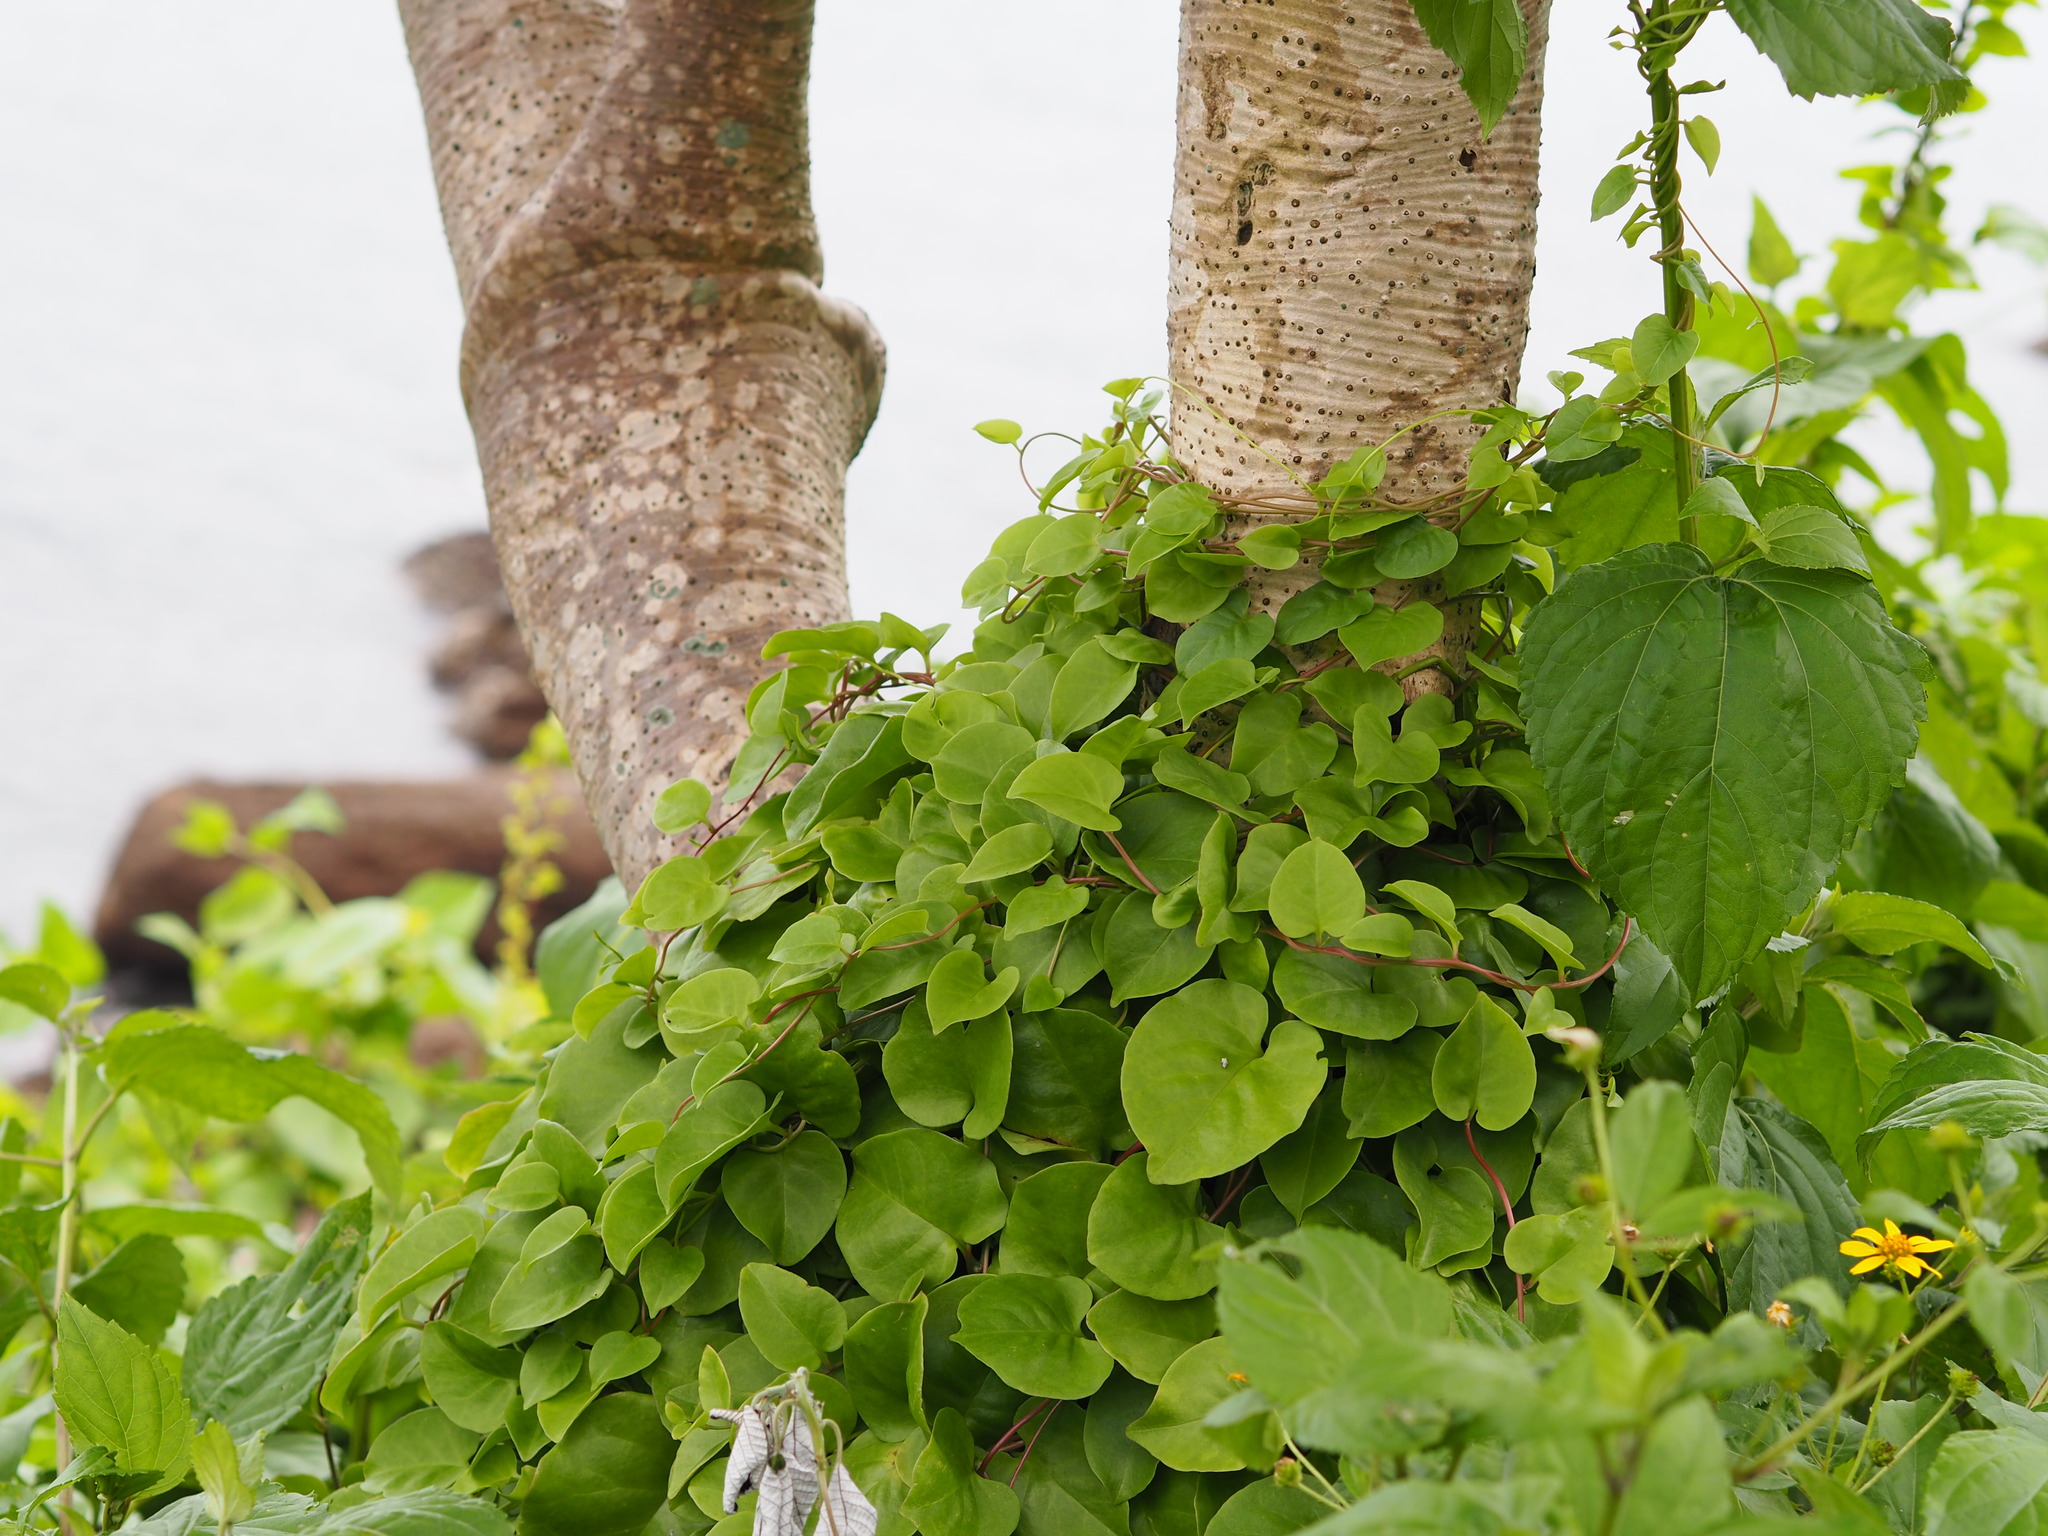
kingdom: Plantae
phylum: Tracheophyta
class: Magnoliopsida
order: Caryophyllales
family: Basellaceae
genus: Anredera
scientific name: Anredera cordifolia
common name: Heartleaf madeiravine
